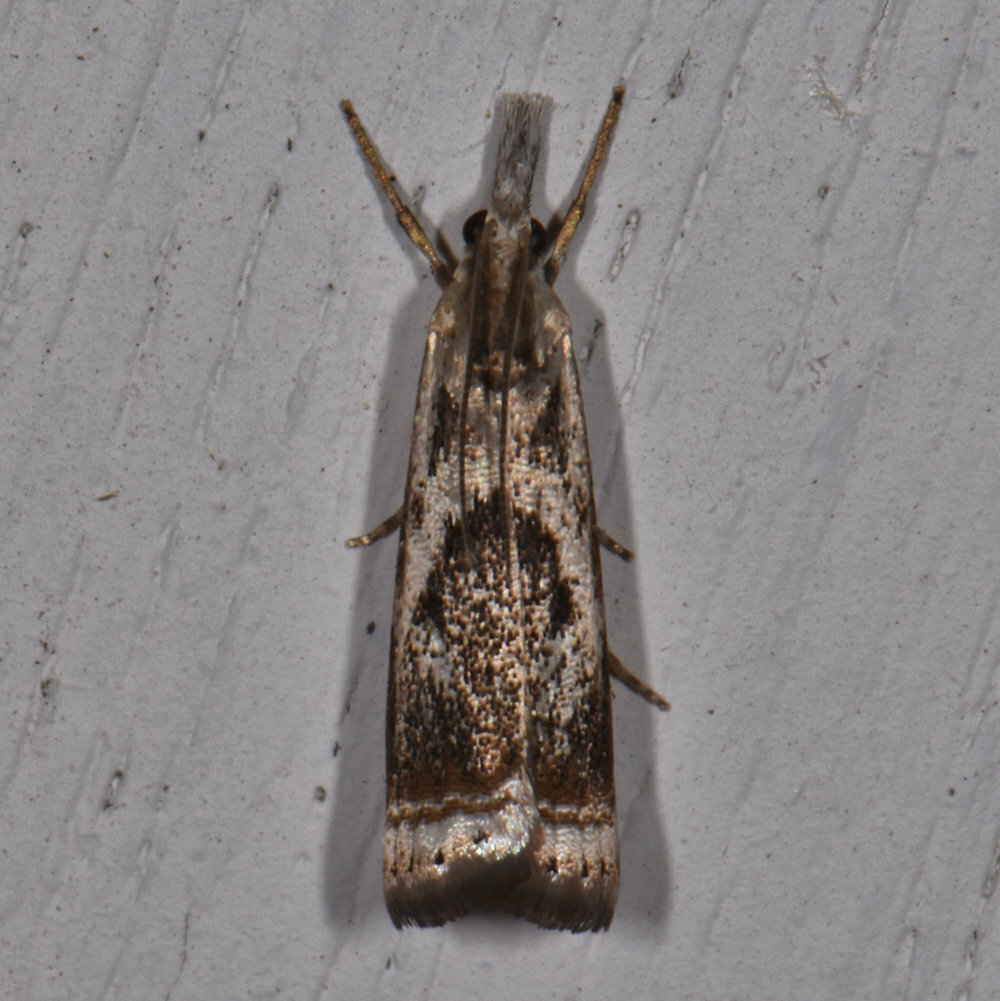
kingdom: Animalia
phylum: Arthropoda
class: Insecta
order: Lepidoptera
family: Crambidae
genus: Microcrambus
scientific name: Microcrambus elegans
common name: Elegant grass-veneer
